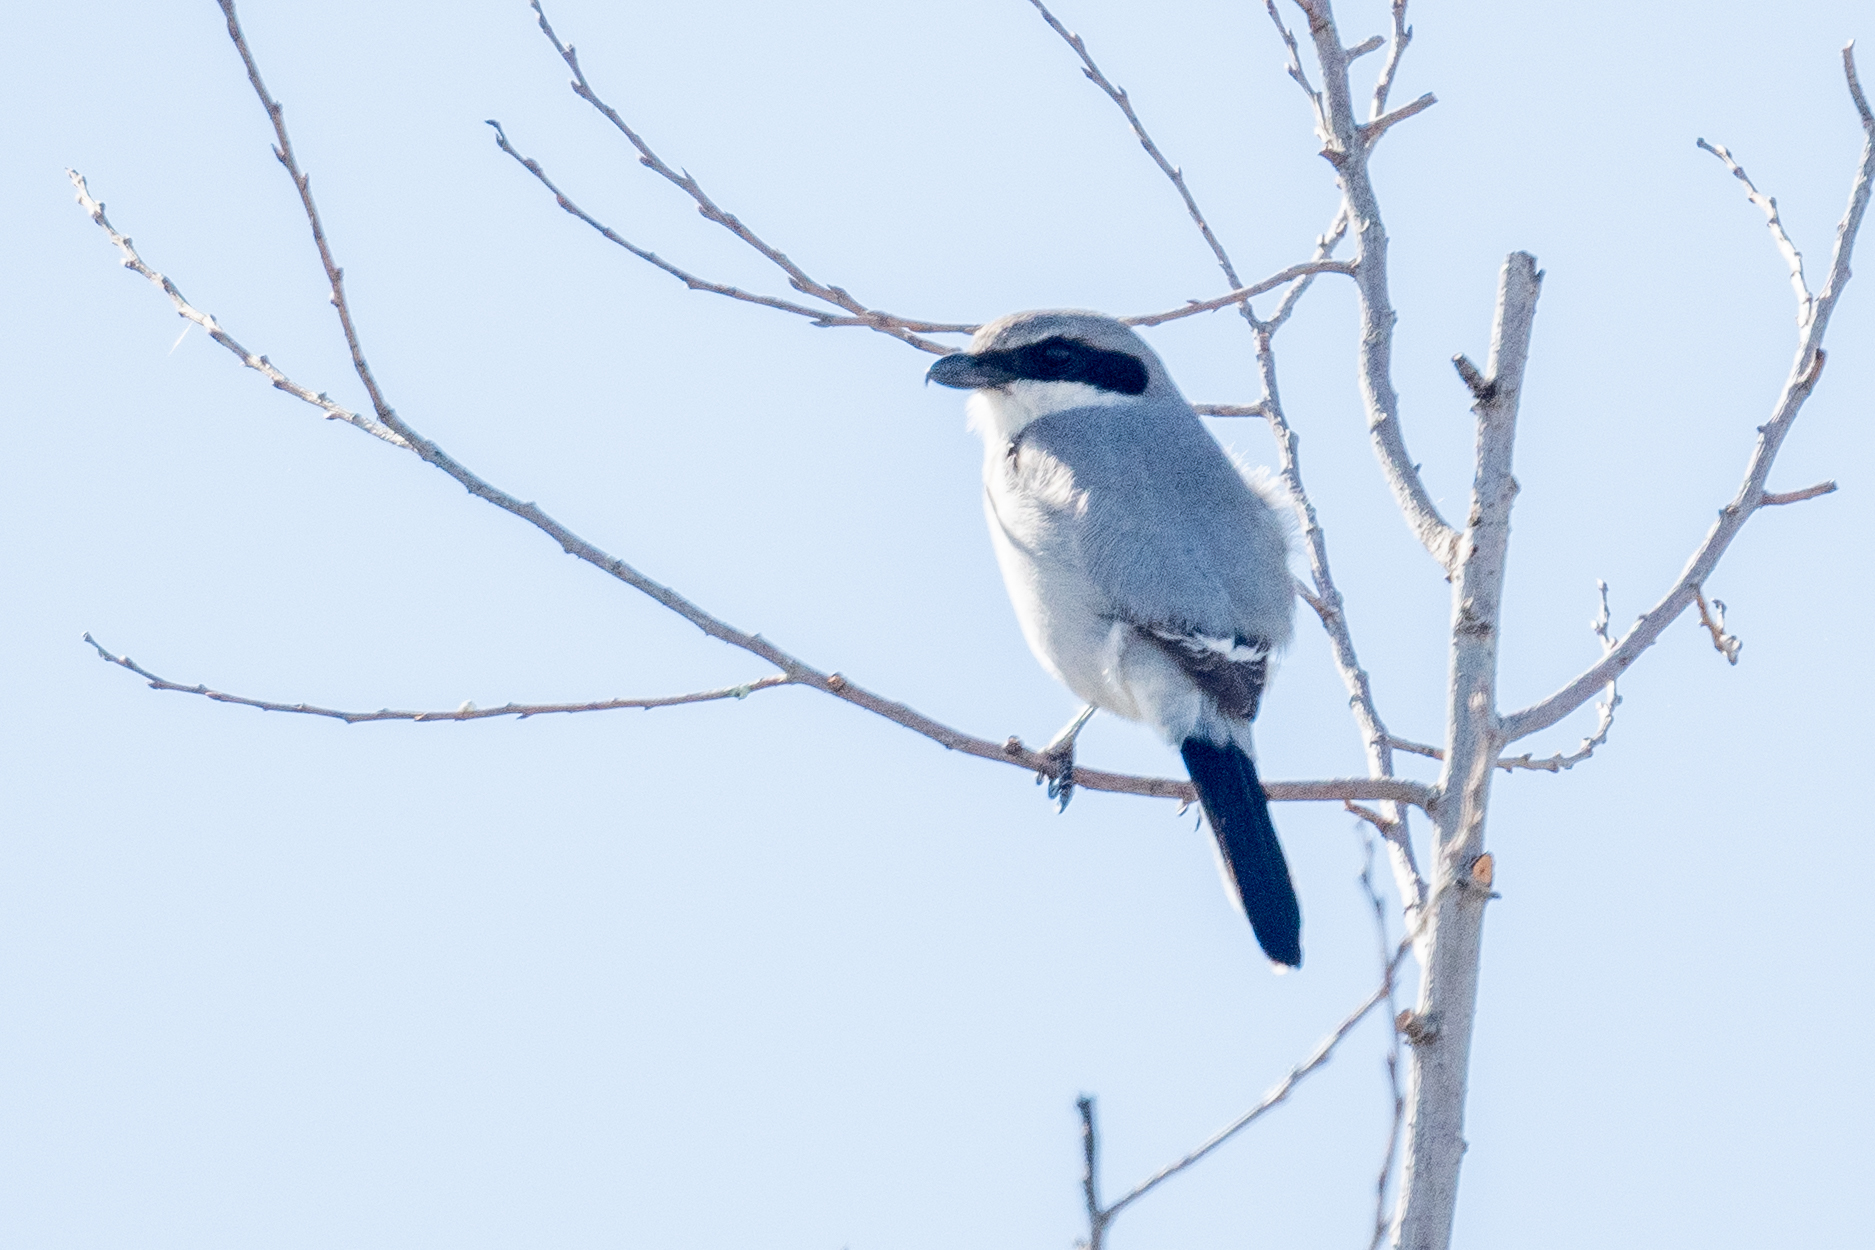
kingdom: Animalia
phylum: Chordata
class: Aves
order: Passeriformes
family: Laniidae
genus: Lanius
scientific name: Lanius ludovicianus
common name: Loggerhead shrike
